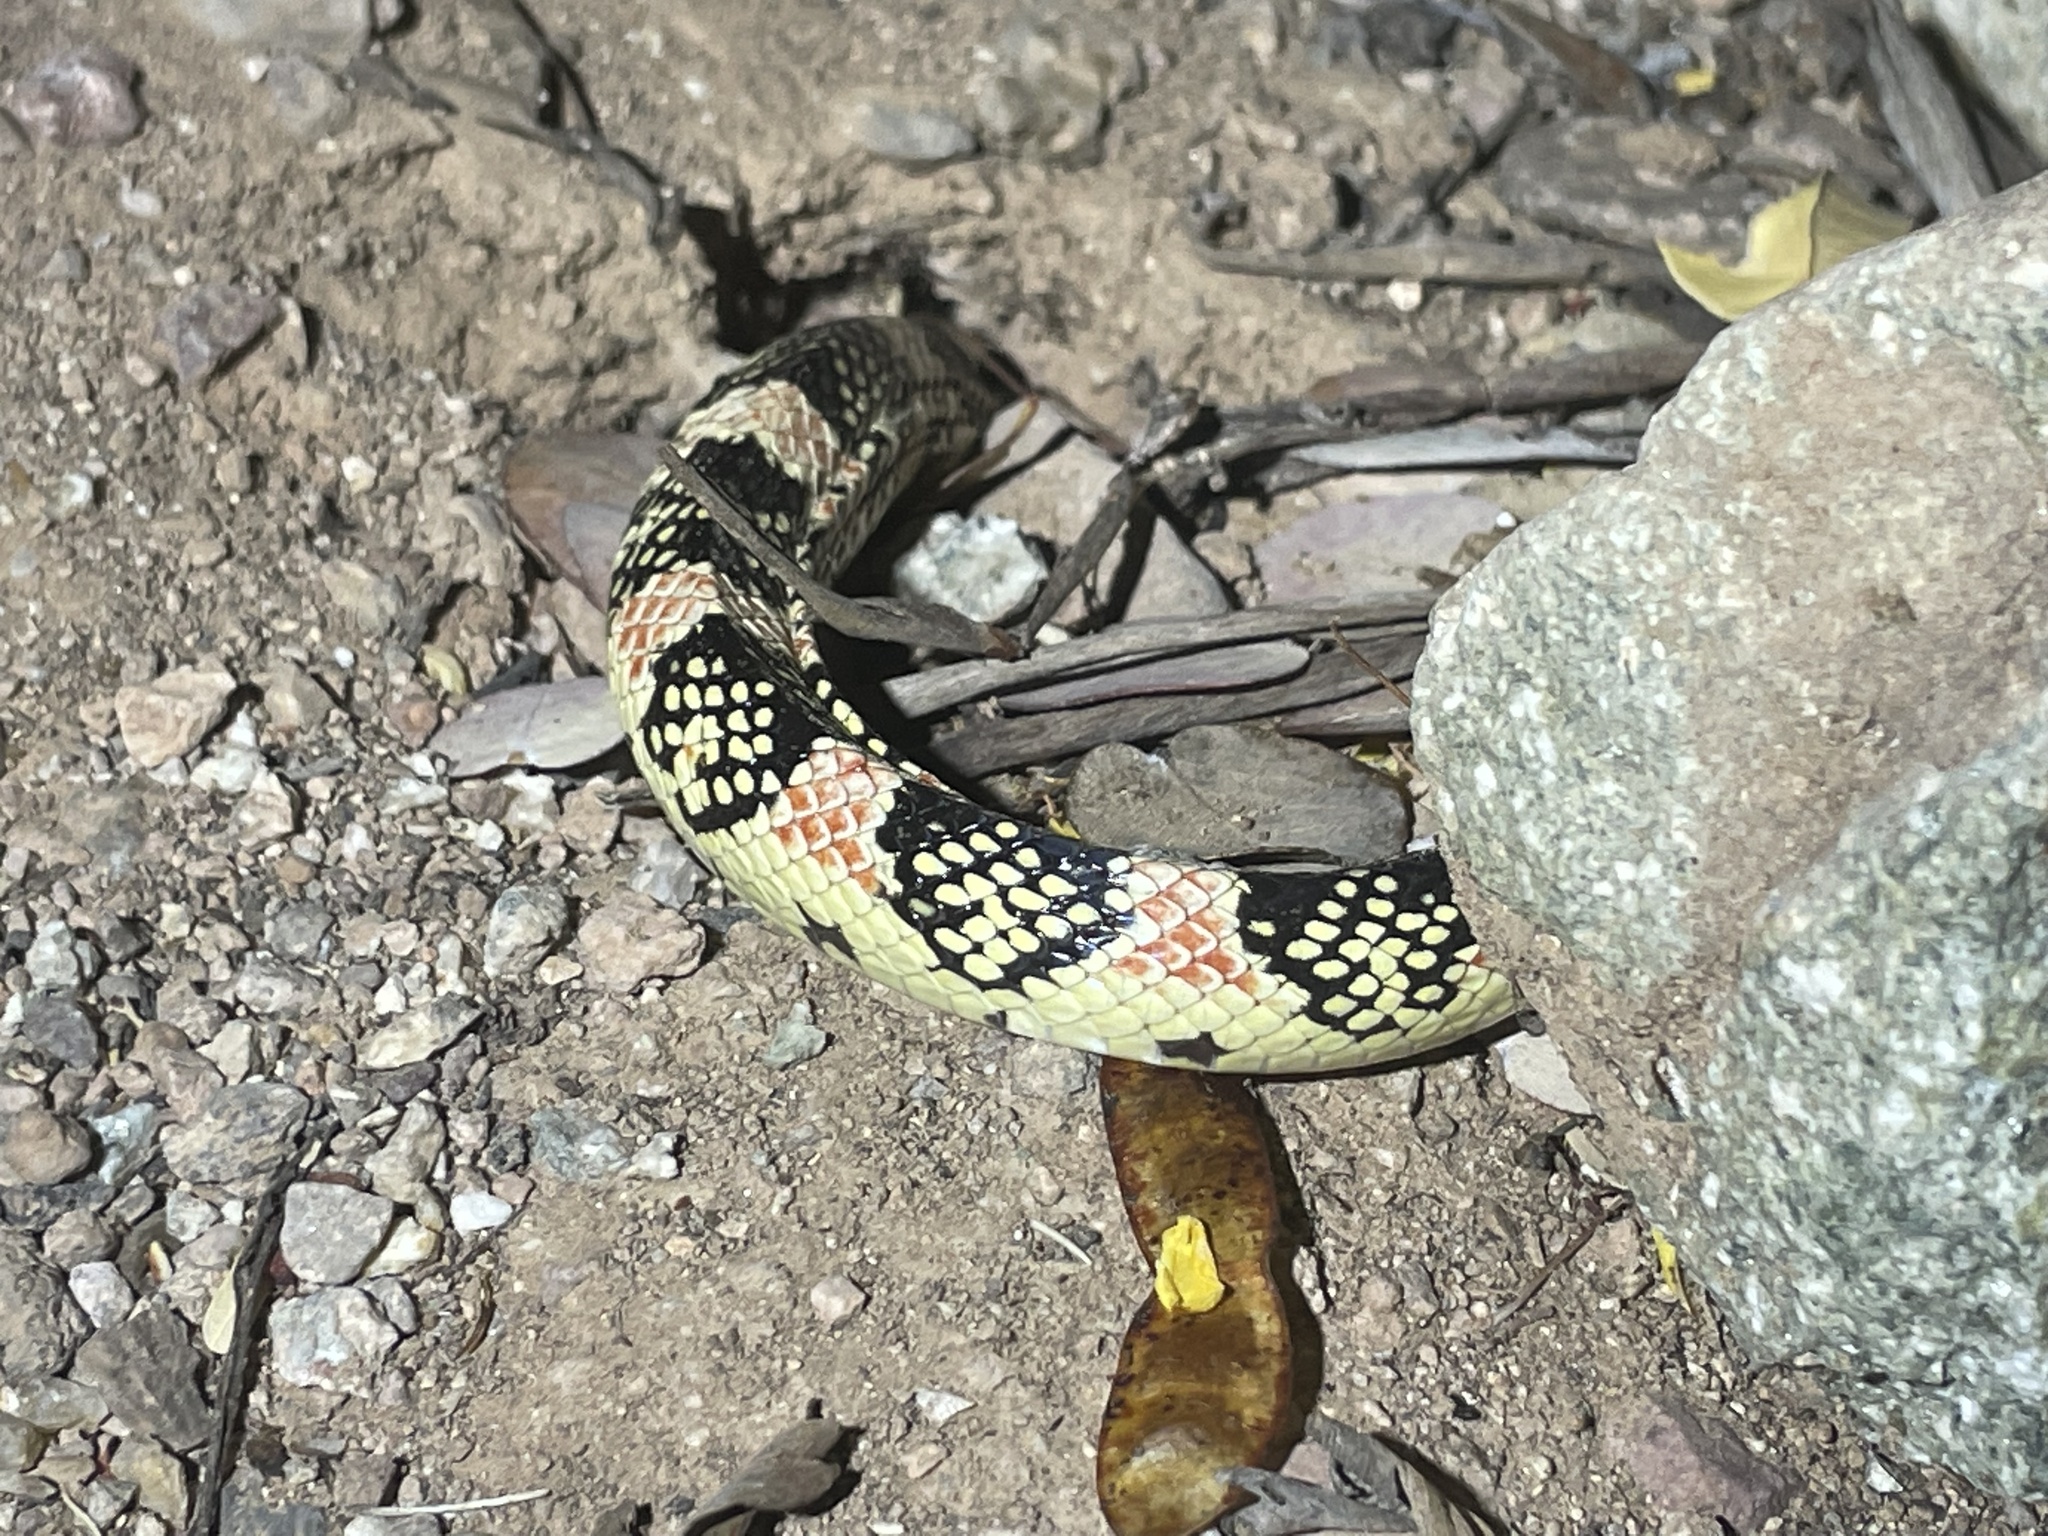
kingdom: Animalia
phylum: Chordata
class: Squamata
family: Colubridae
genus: Rhinocheilus
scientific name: Rhinocheilus lecontei
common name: Longnose snake
